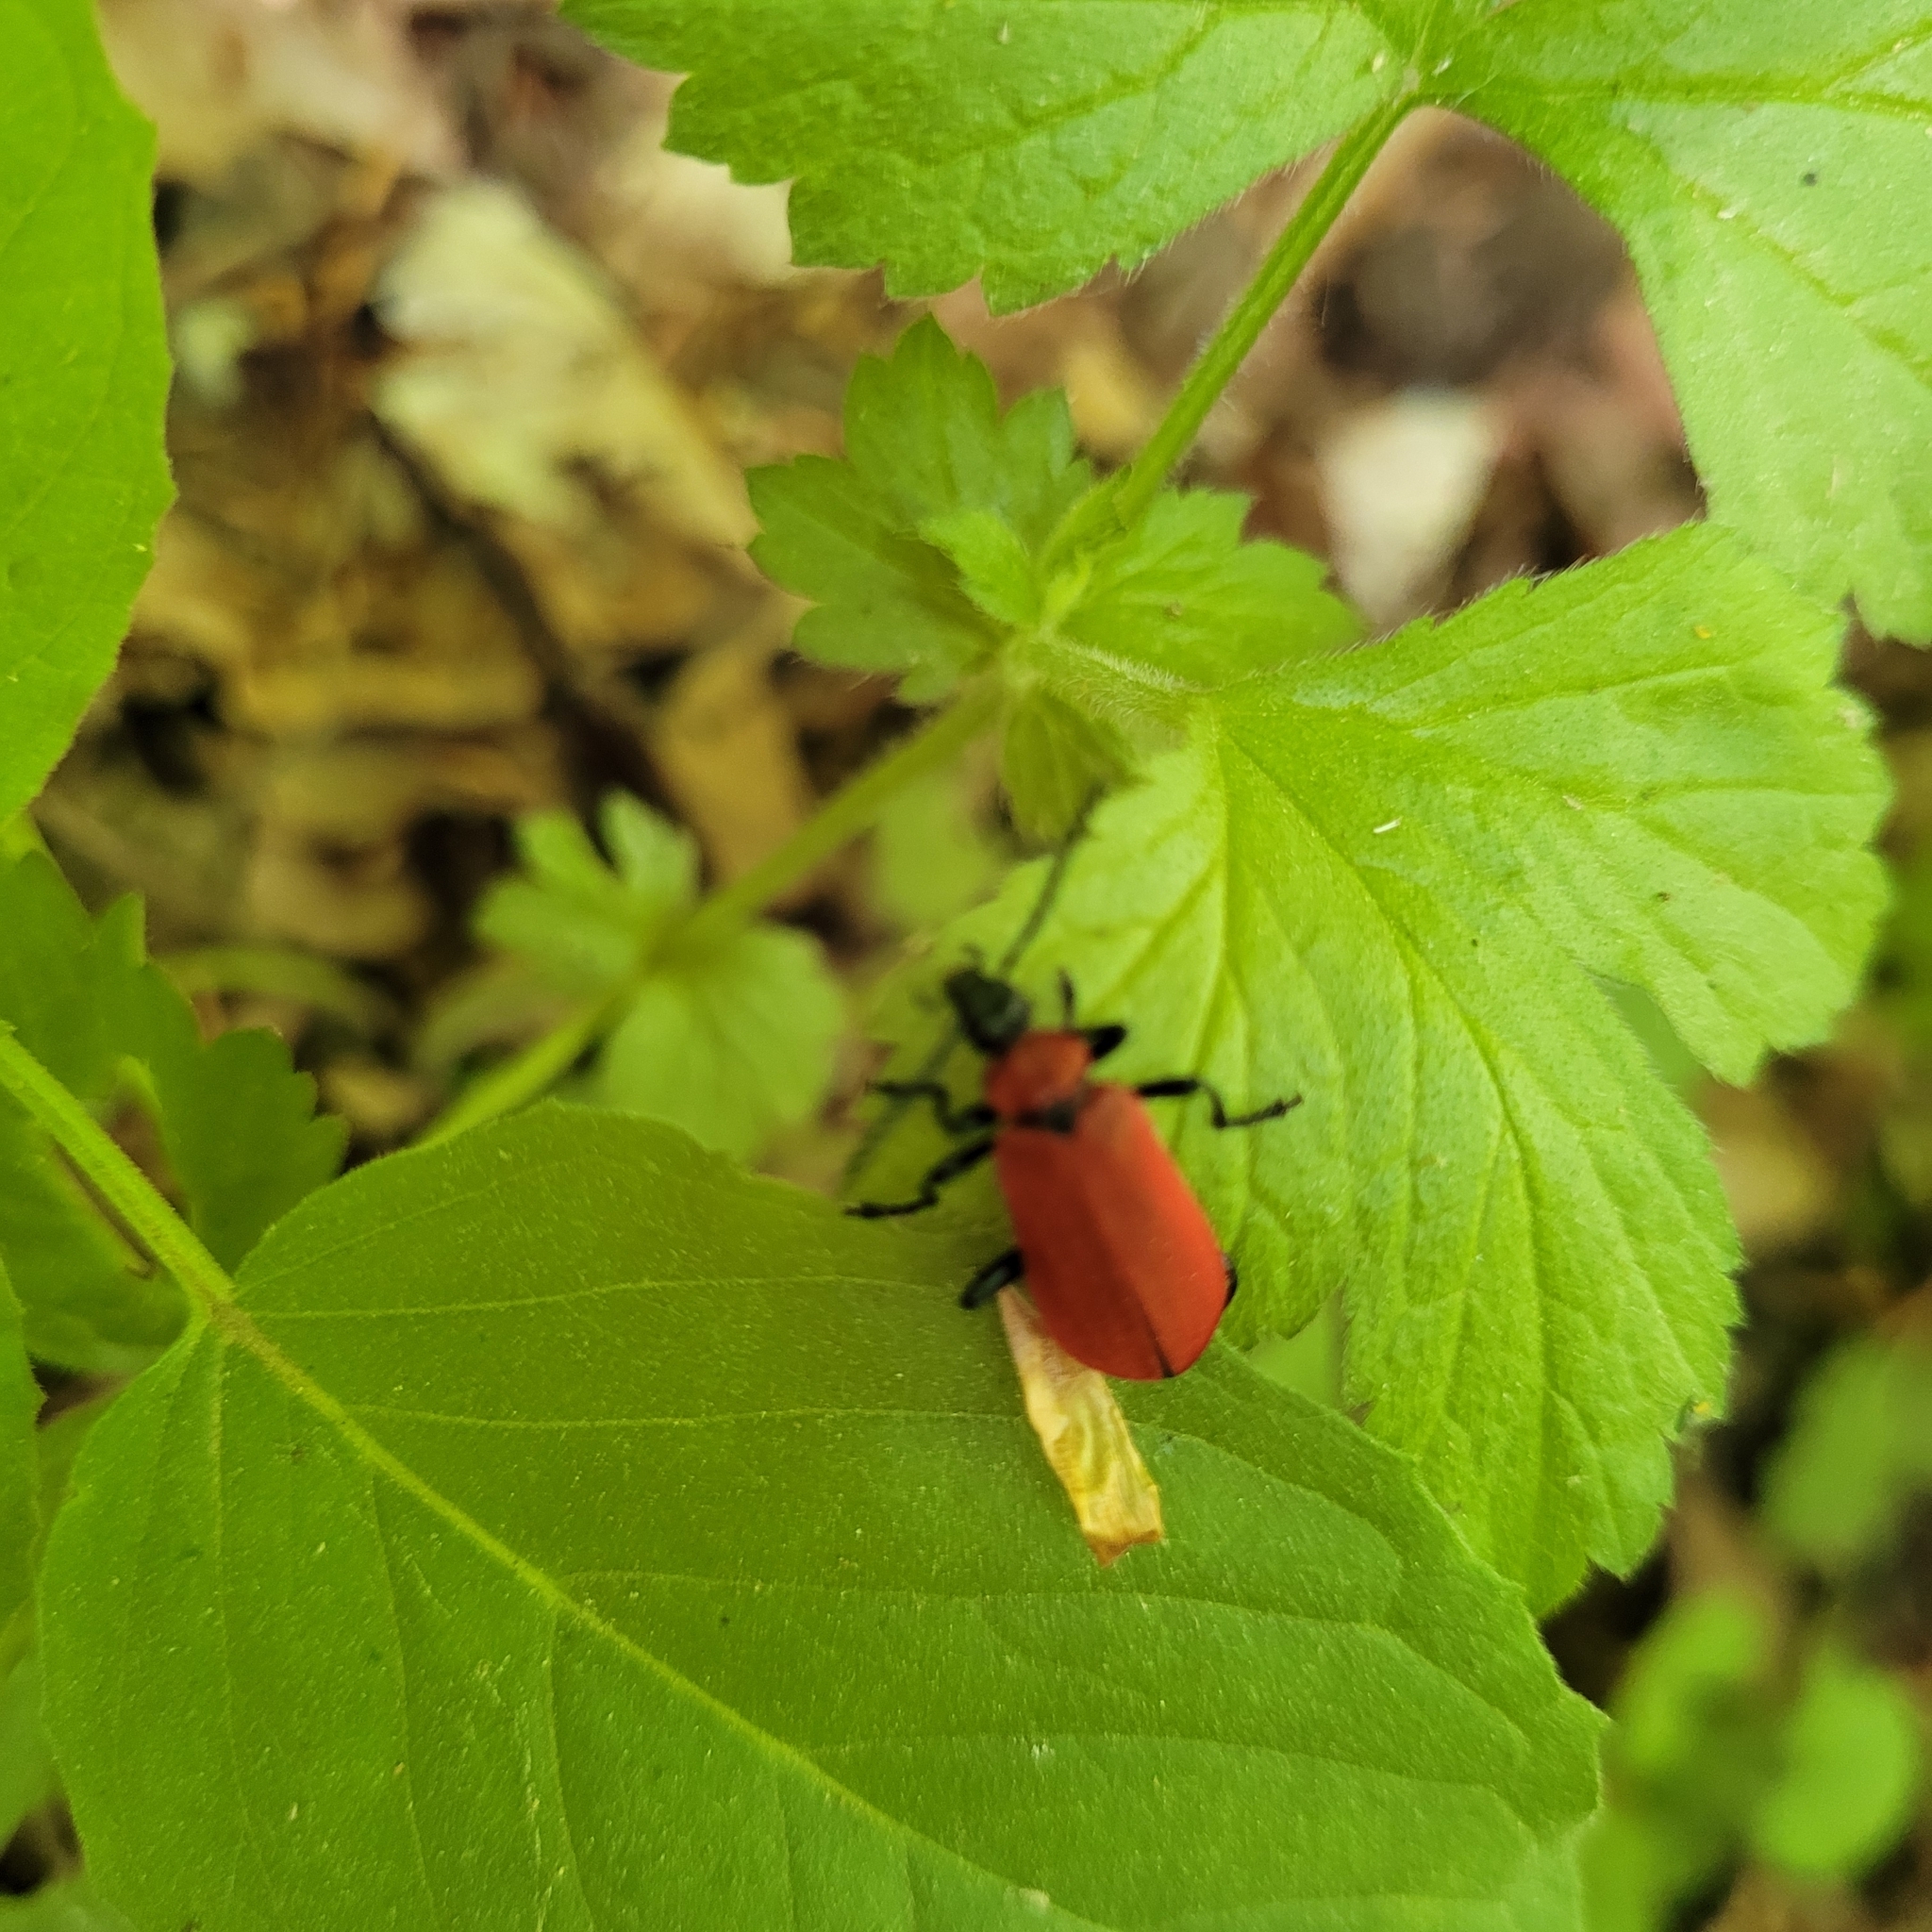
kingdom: Animalia
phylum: Arthropoda
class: Insecta
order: Coleoptera
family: Pyrochroidae
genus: Pyrochroa
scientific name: Pyrochroa coccinea
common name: Black-headed cardinal beetle
